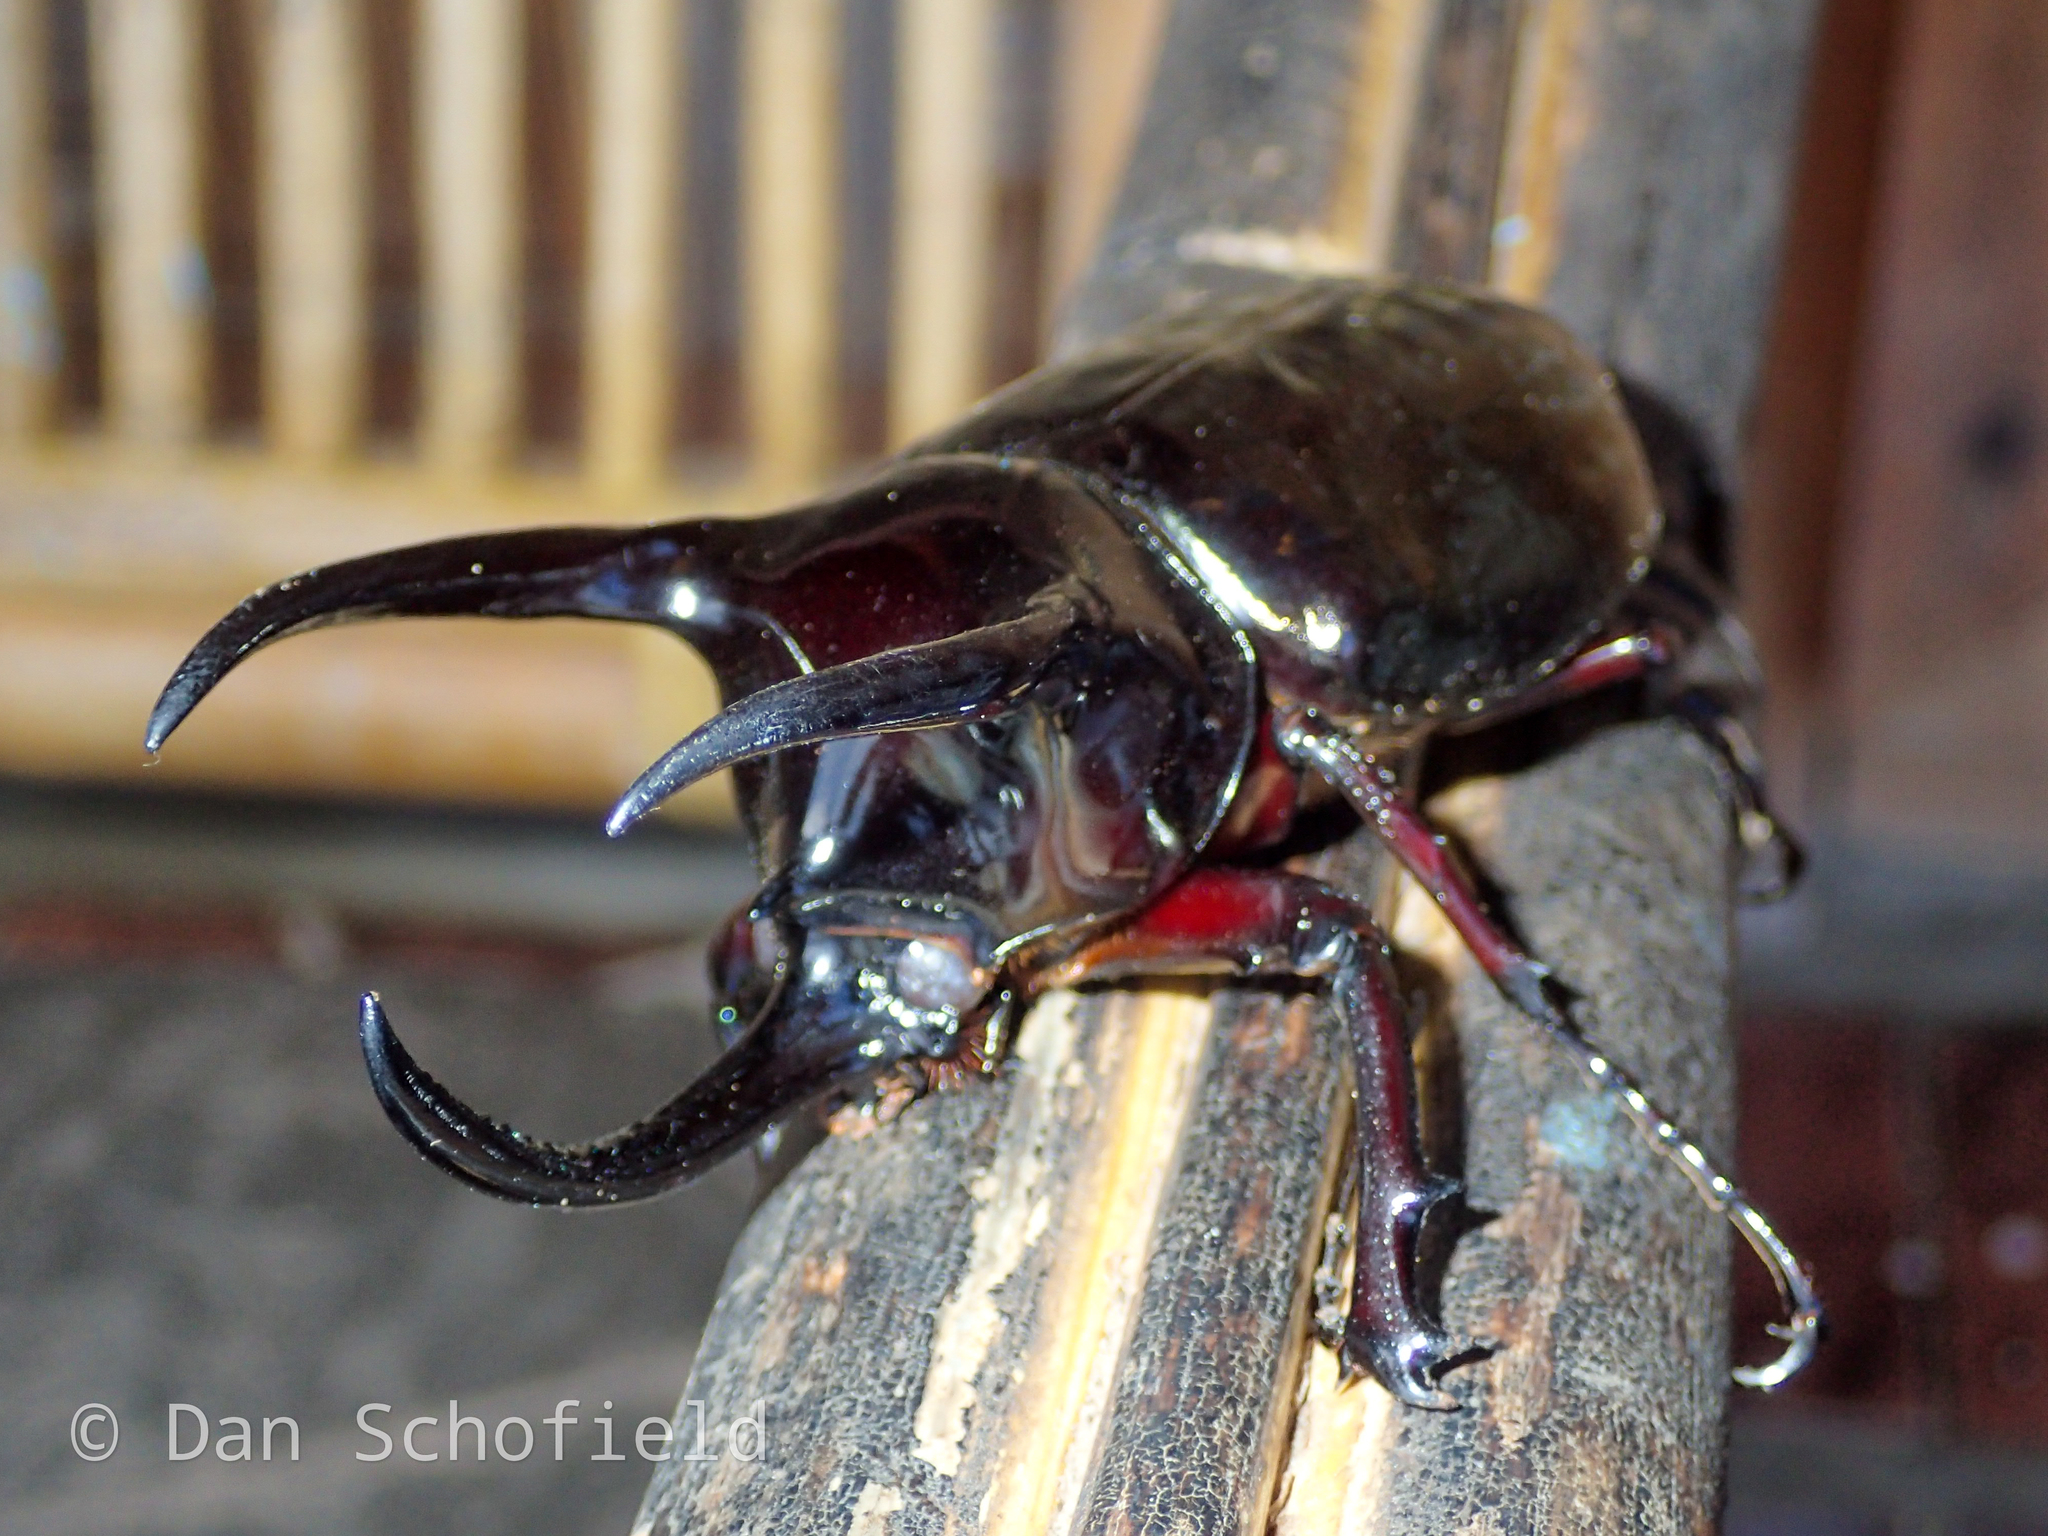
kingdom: Animalia
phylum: Arthropoda
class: Insecta
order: Coleoptera
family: Scarabaeidae
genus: Chalcosoma
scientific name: Chalcosoma atlas
